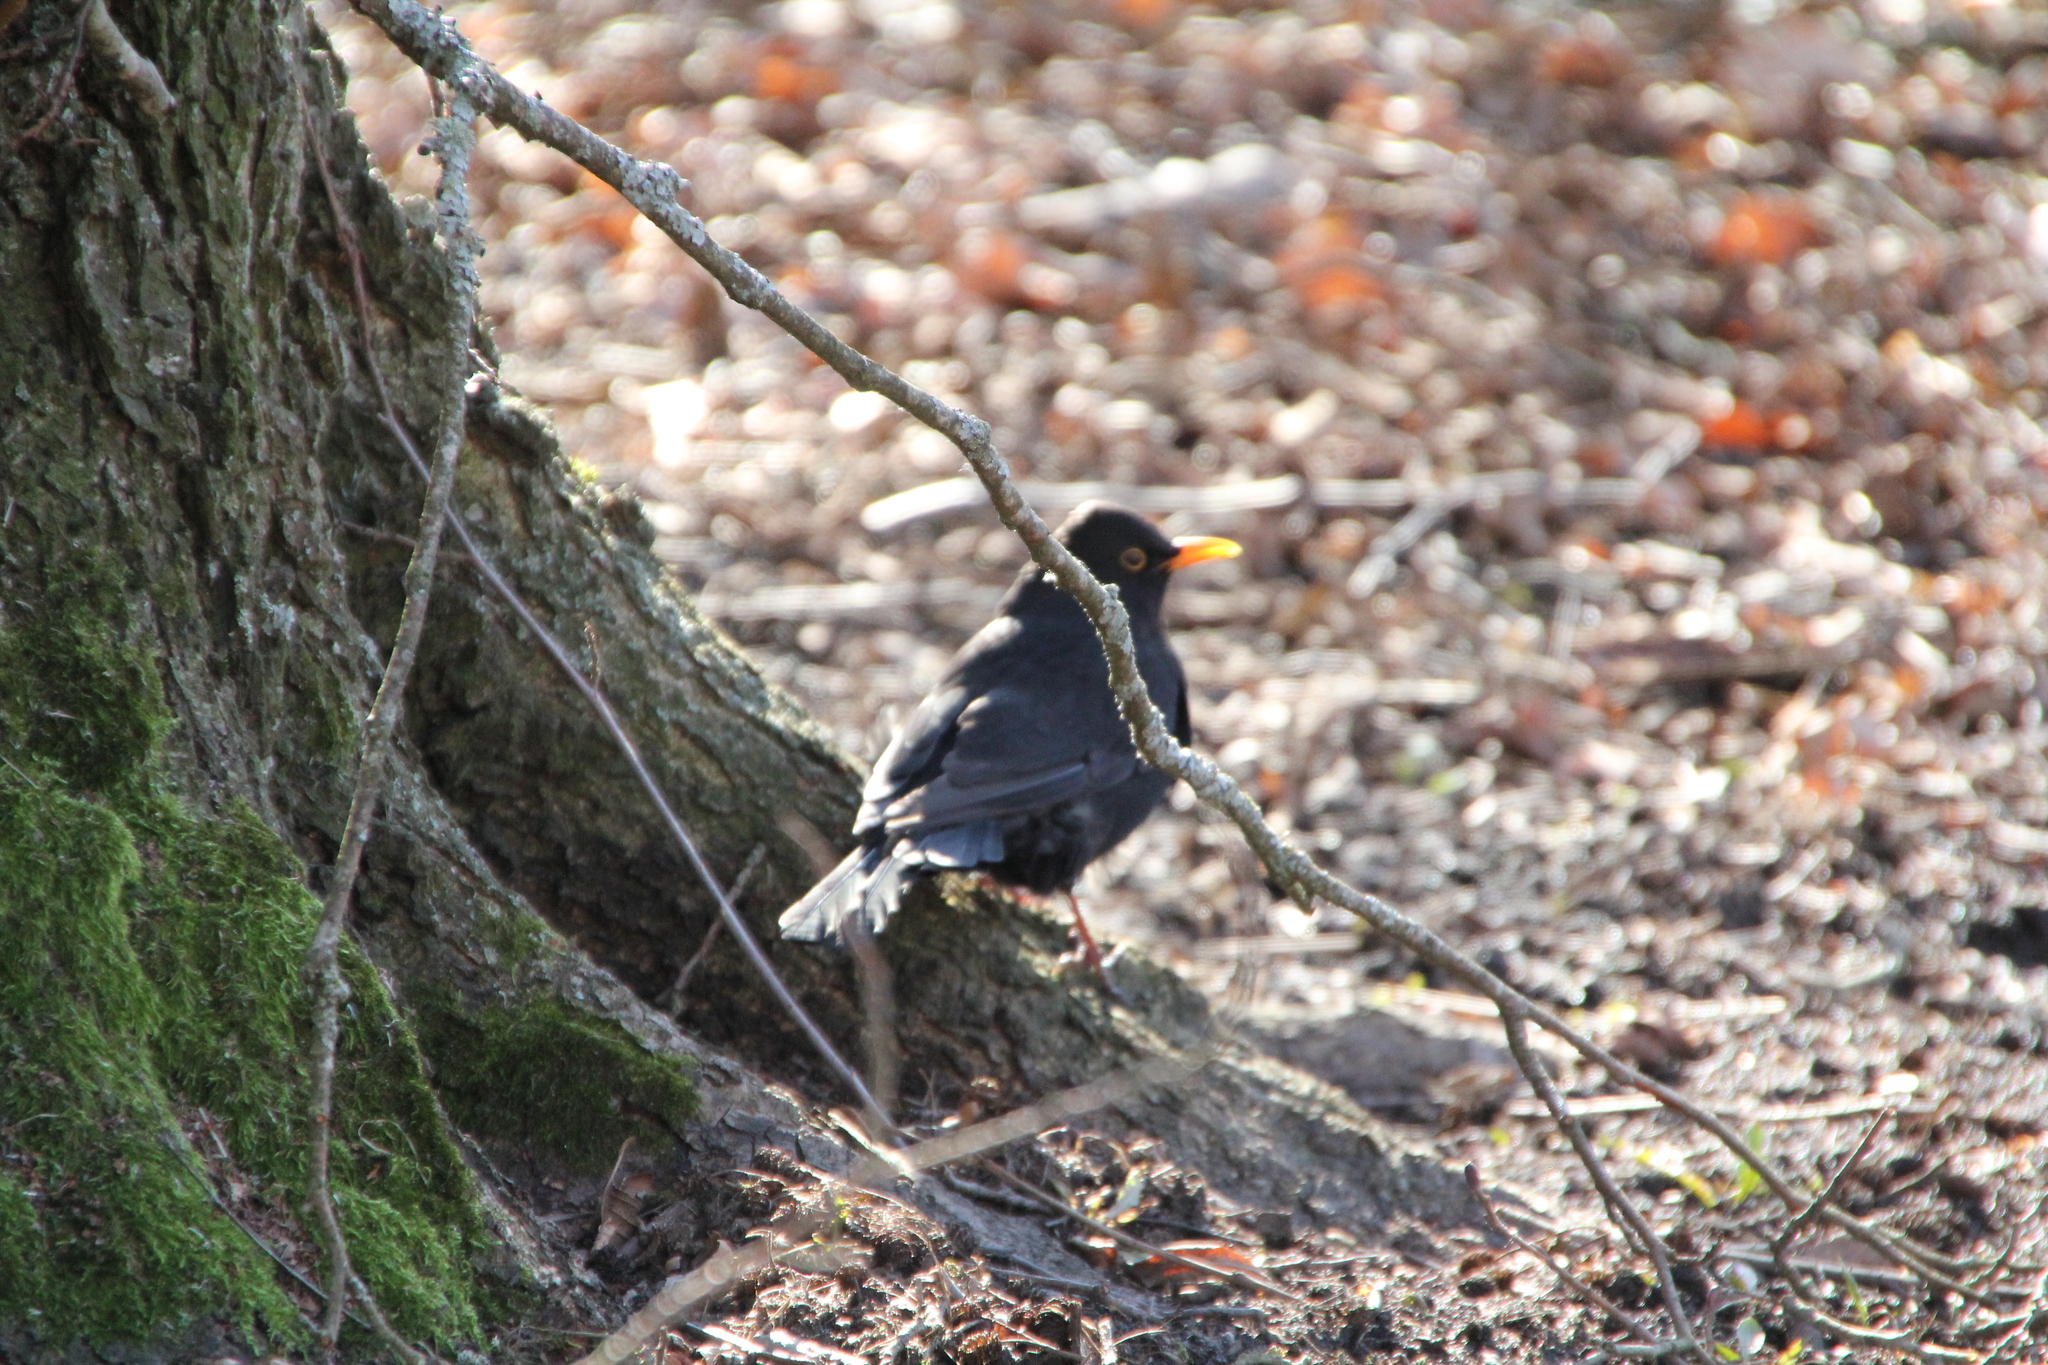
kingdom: Animalia
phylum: Chordata
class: Aves
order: Passeriformes
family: Turdidae
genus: Turdus
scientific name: Turdus merula
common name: Common blackbird
